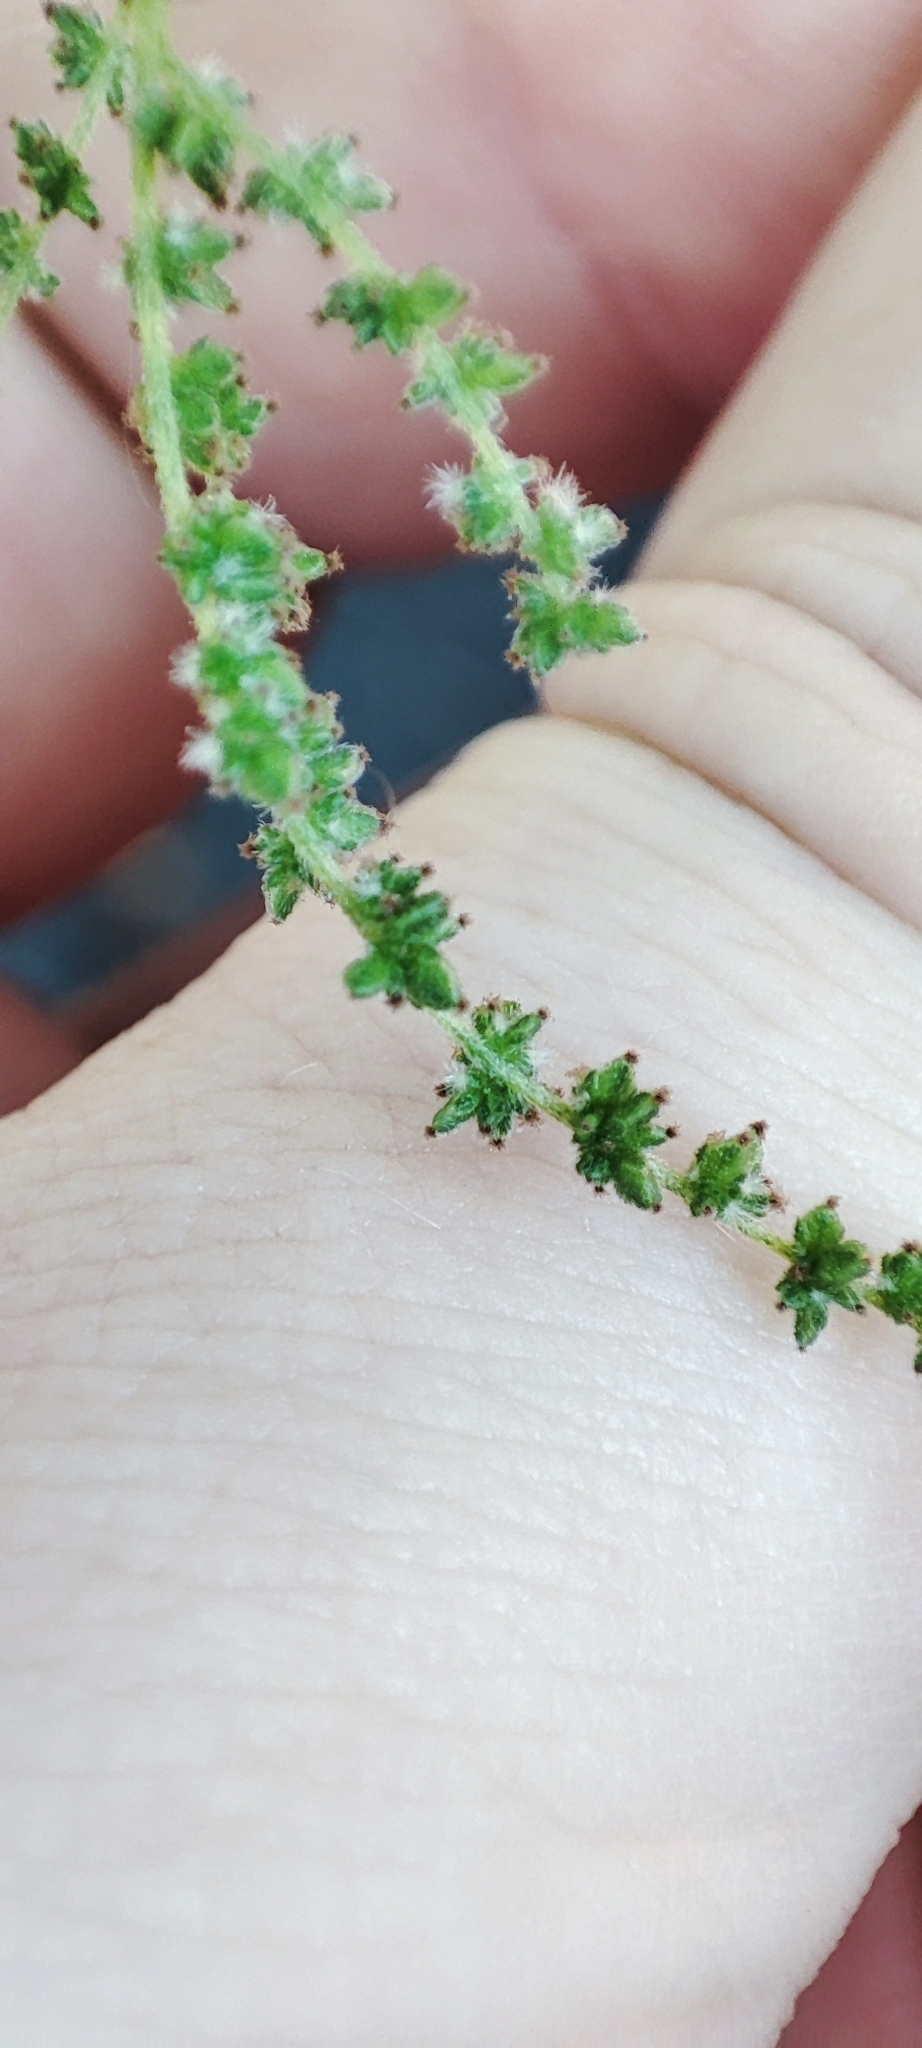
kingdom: Plantae
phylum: Tracheophyta
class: Magnoliopsida
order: Rosales
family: Urticaceae
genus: Urtica
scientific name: Urtica dioica
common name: Common nettle
